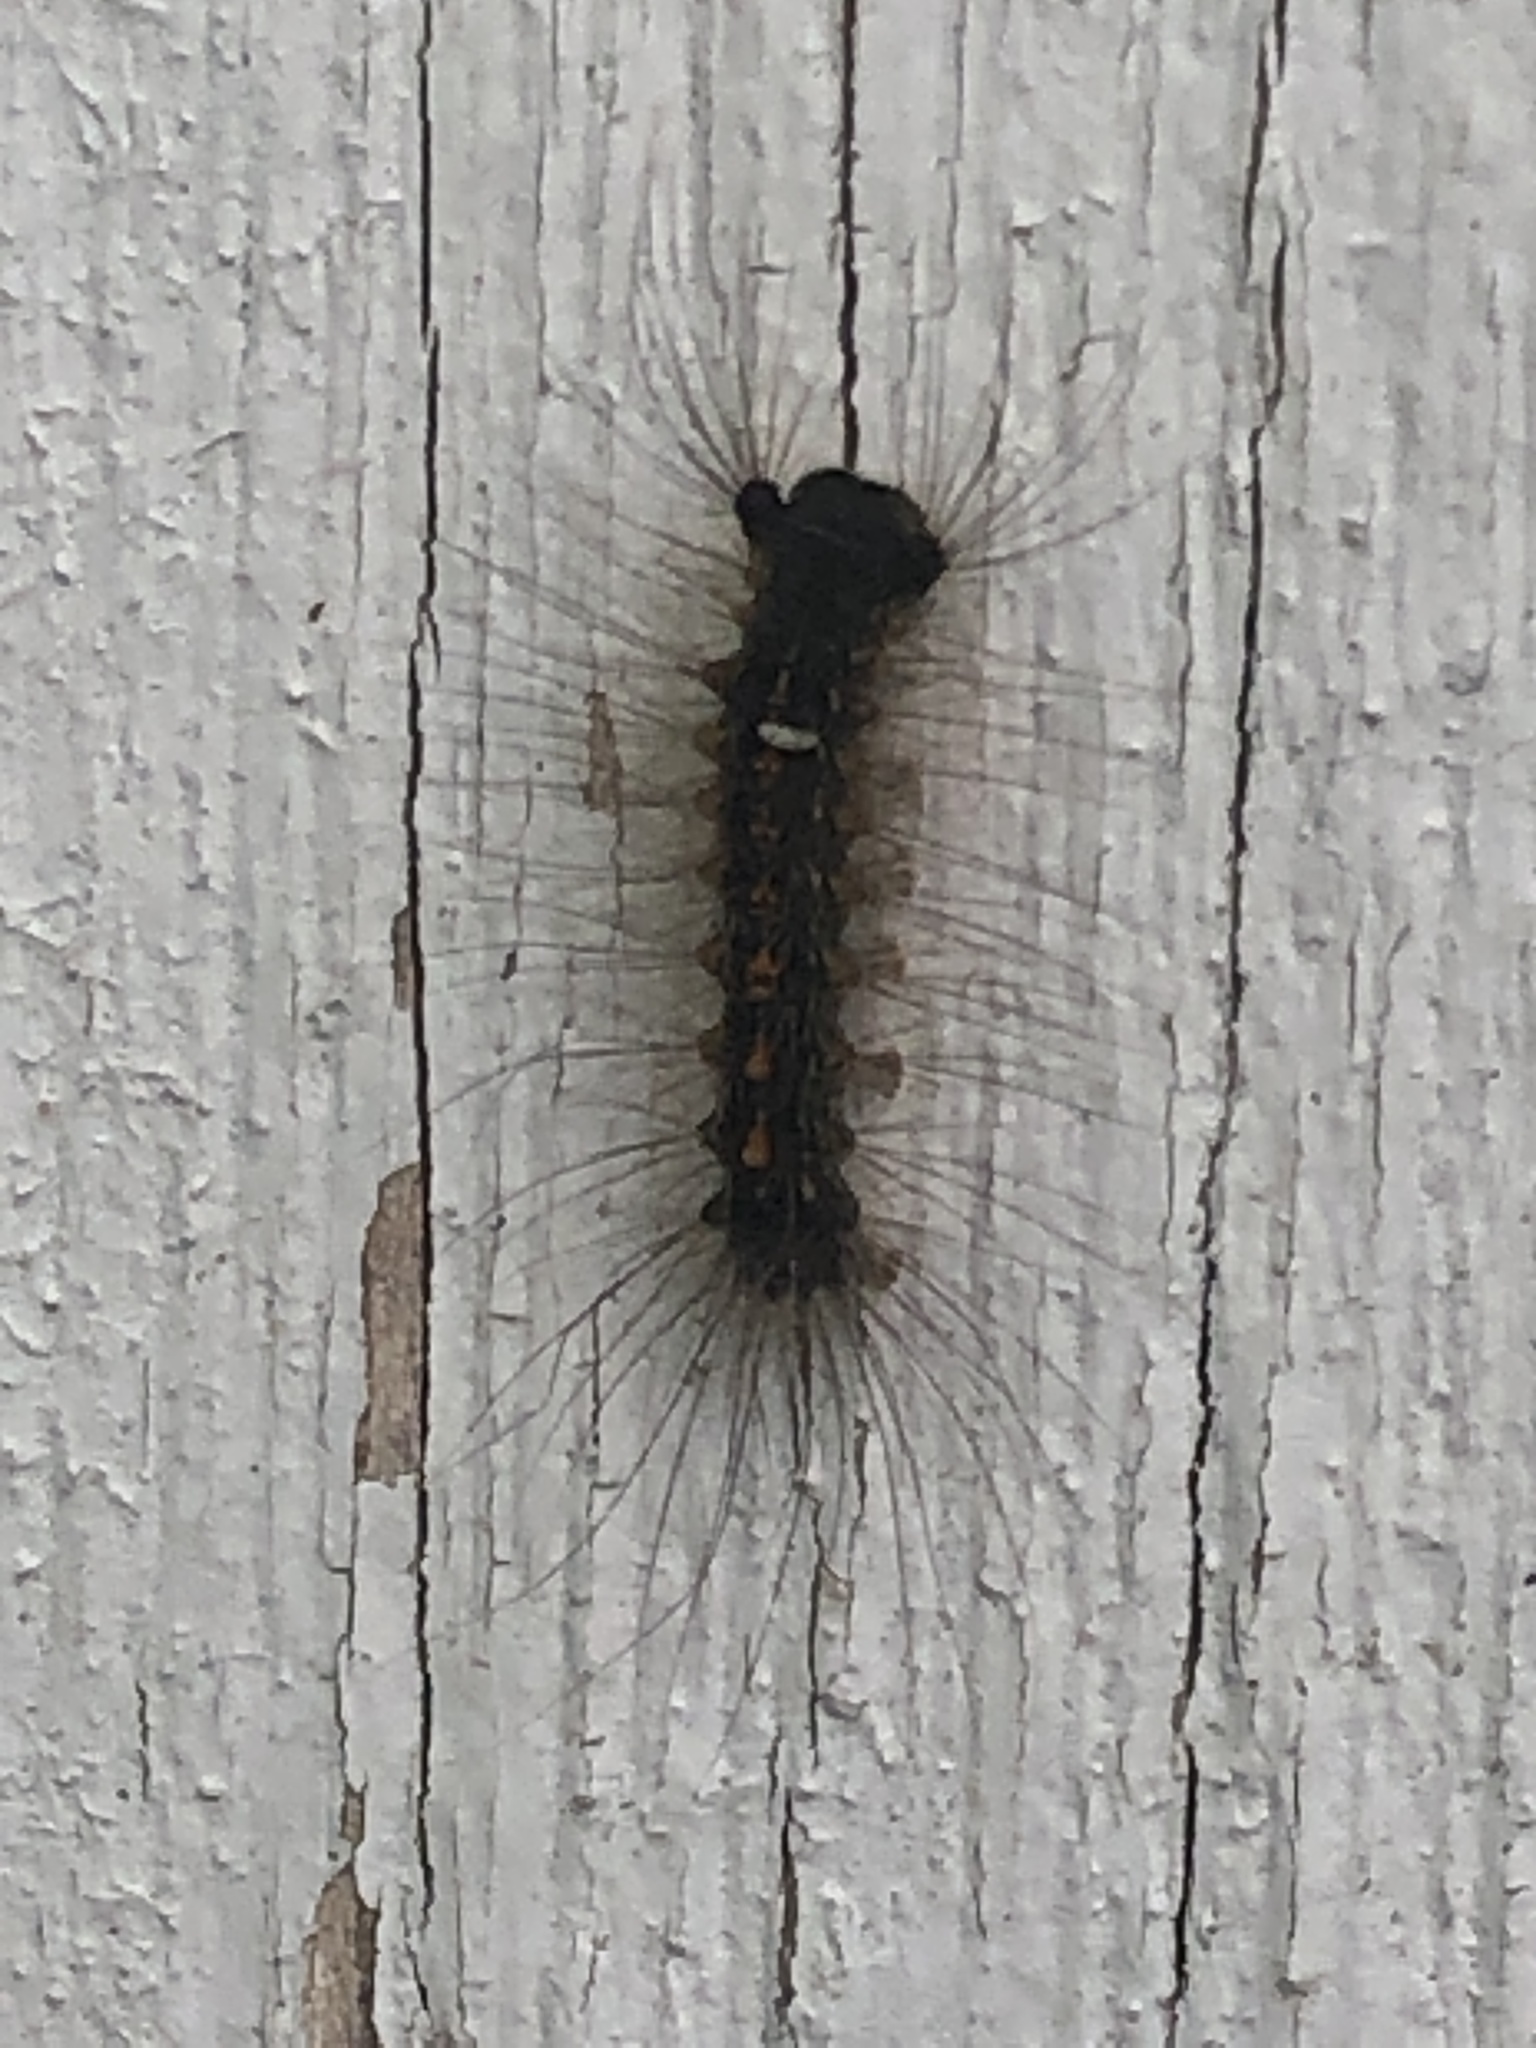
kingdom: Animalia
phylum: Arthropoda
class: Insecta
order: Lepidoptera
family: Erebidae
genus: Lymantria
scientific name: Lymantria dispar
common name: Gypsy moth
